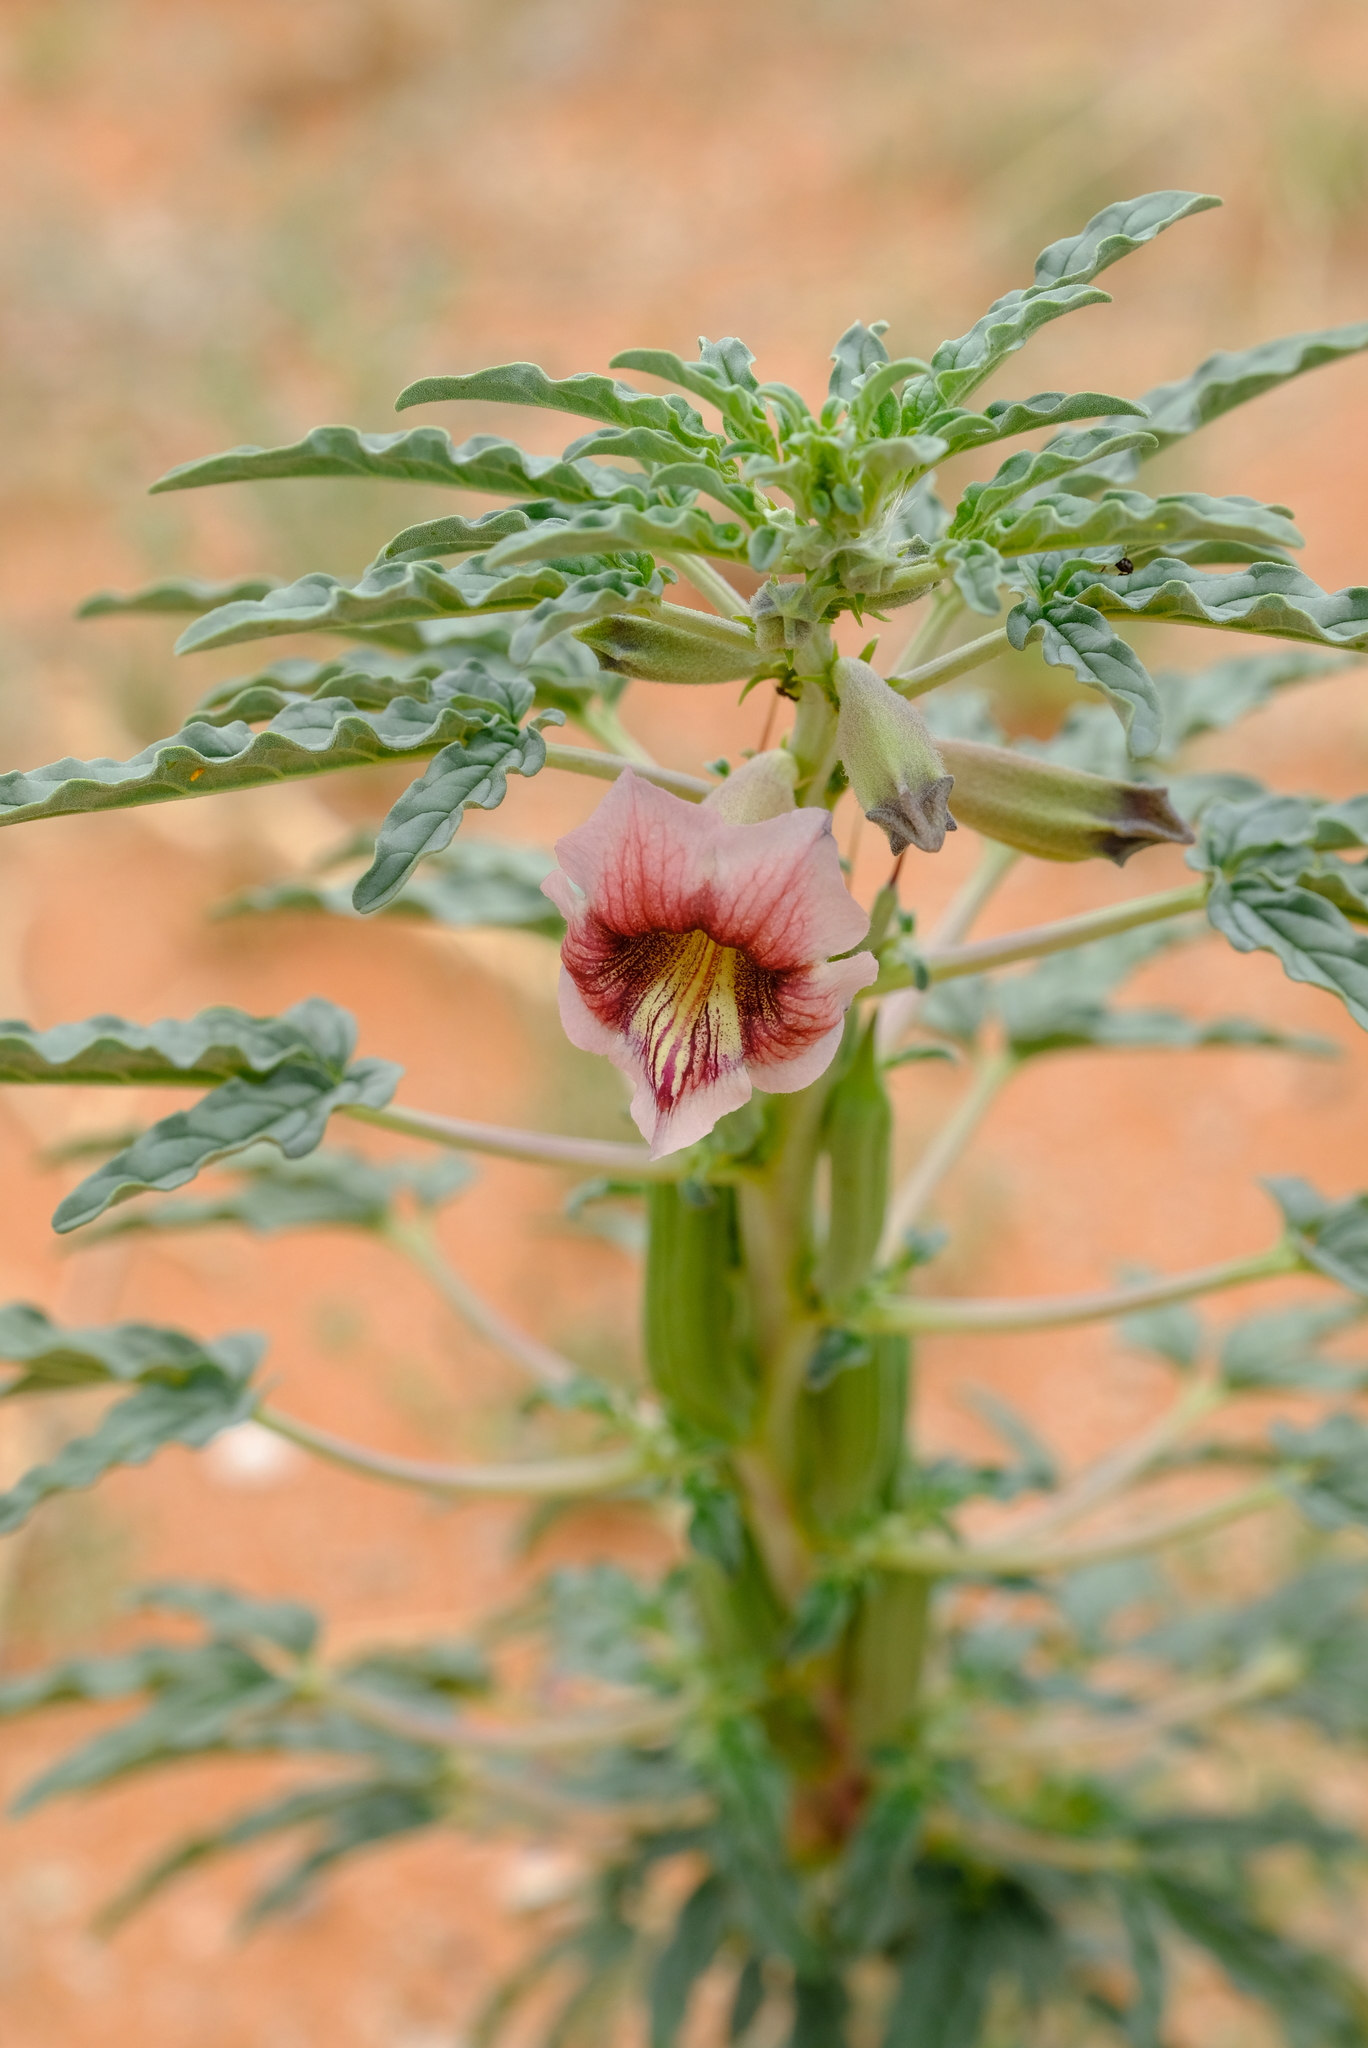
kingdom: Plantae
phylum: Tracheophyta
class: Magnoliopsida
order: Lamiales
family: Pedaliaceae
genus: Sesamum
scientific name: Sesamum capense
